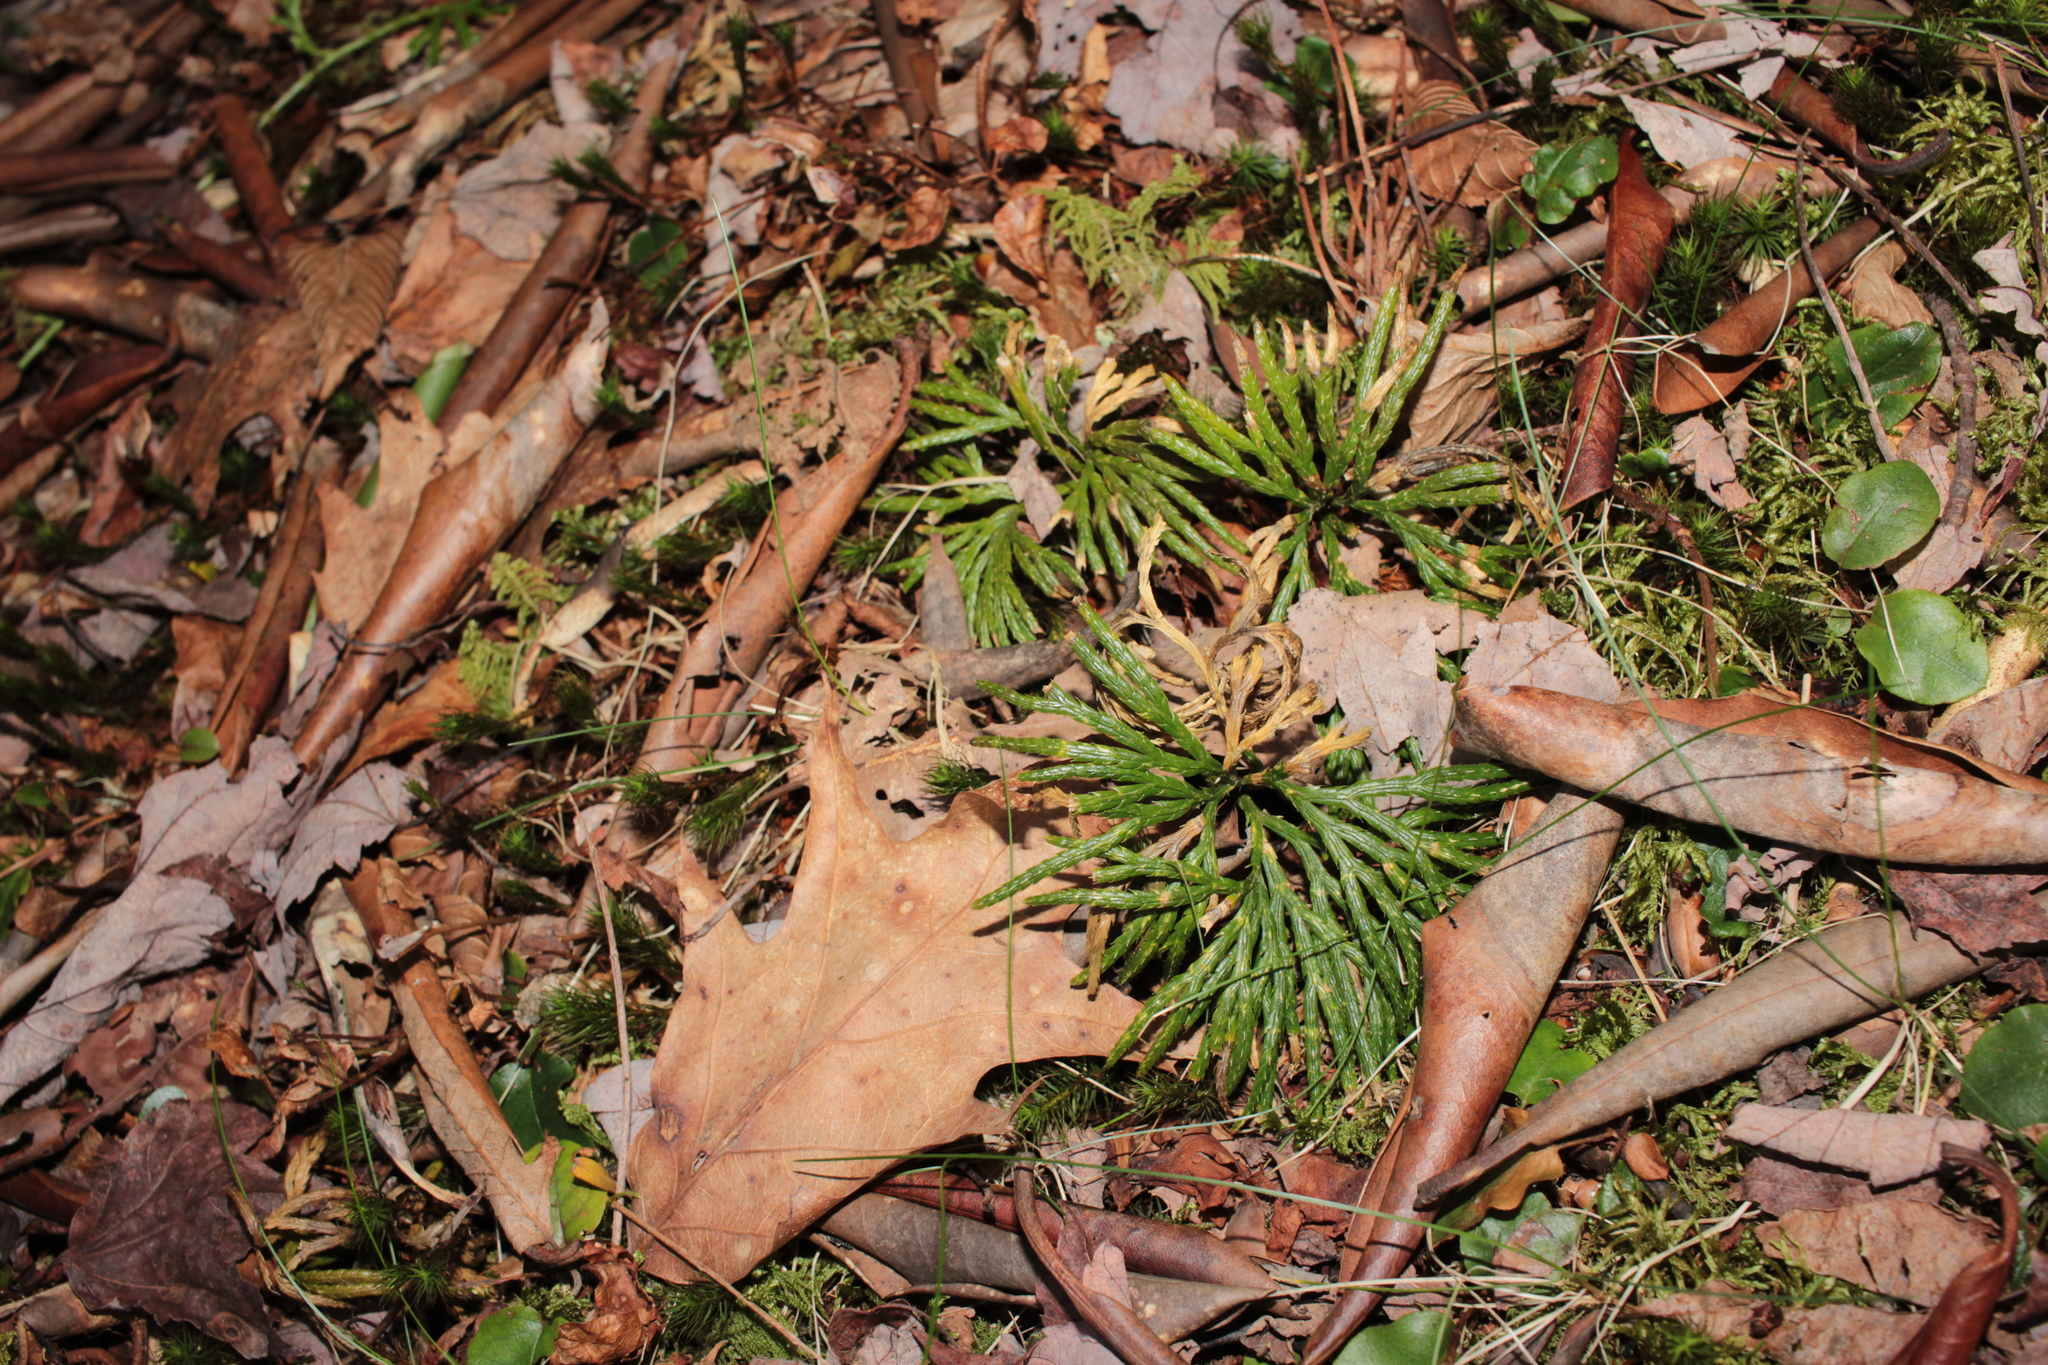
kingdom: Plantae
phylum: Tracheophyta
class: Lycopodiopsida
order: Lycopodiales
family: Lycopodiaceae
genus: Diphasiastrum
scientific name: Diphasiastrum digitatum
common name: Southern running-pine
